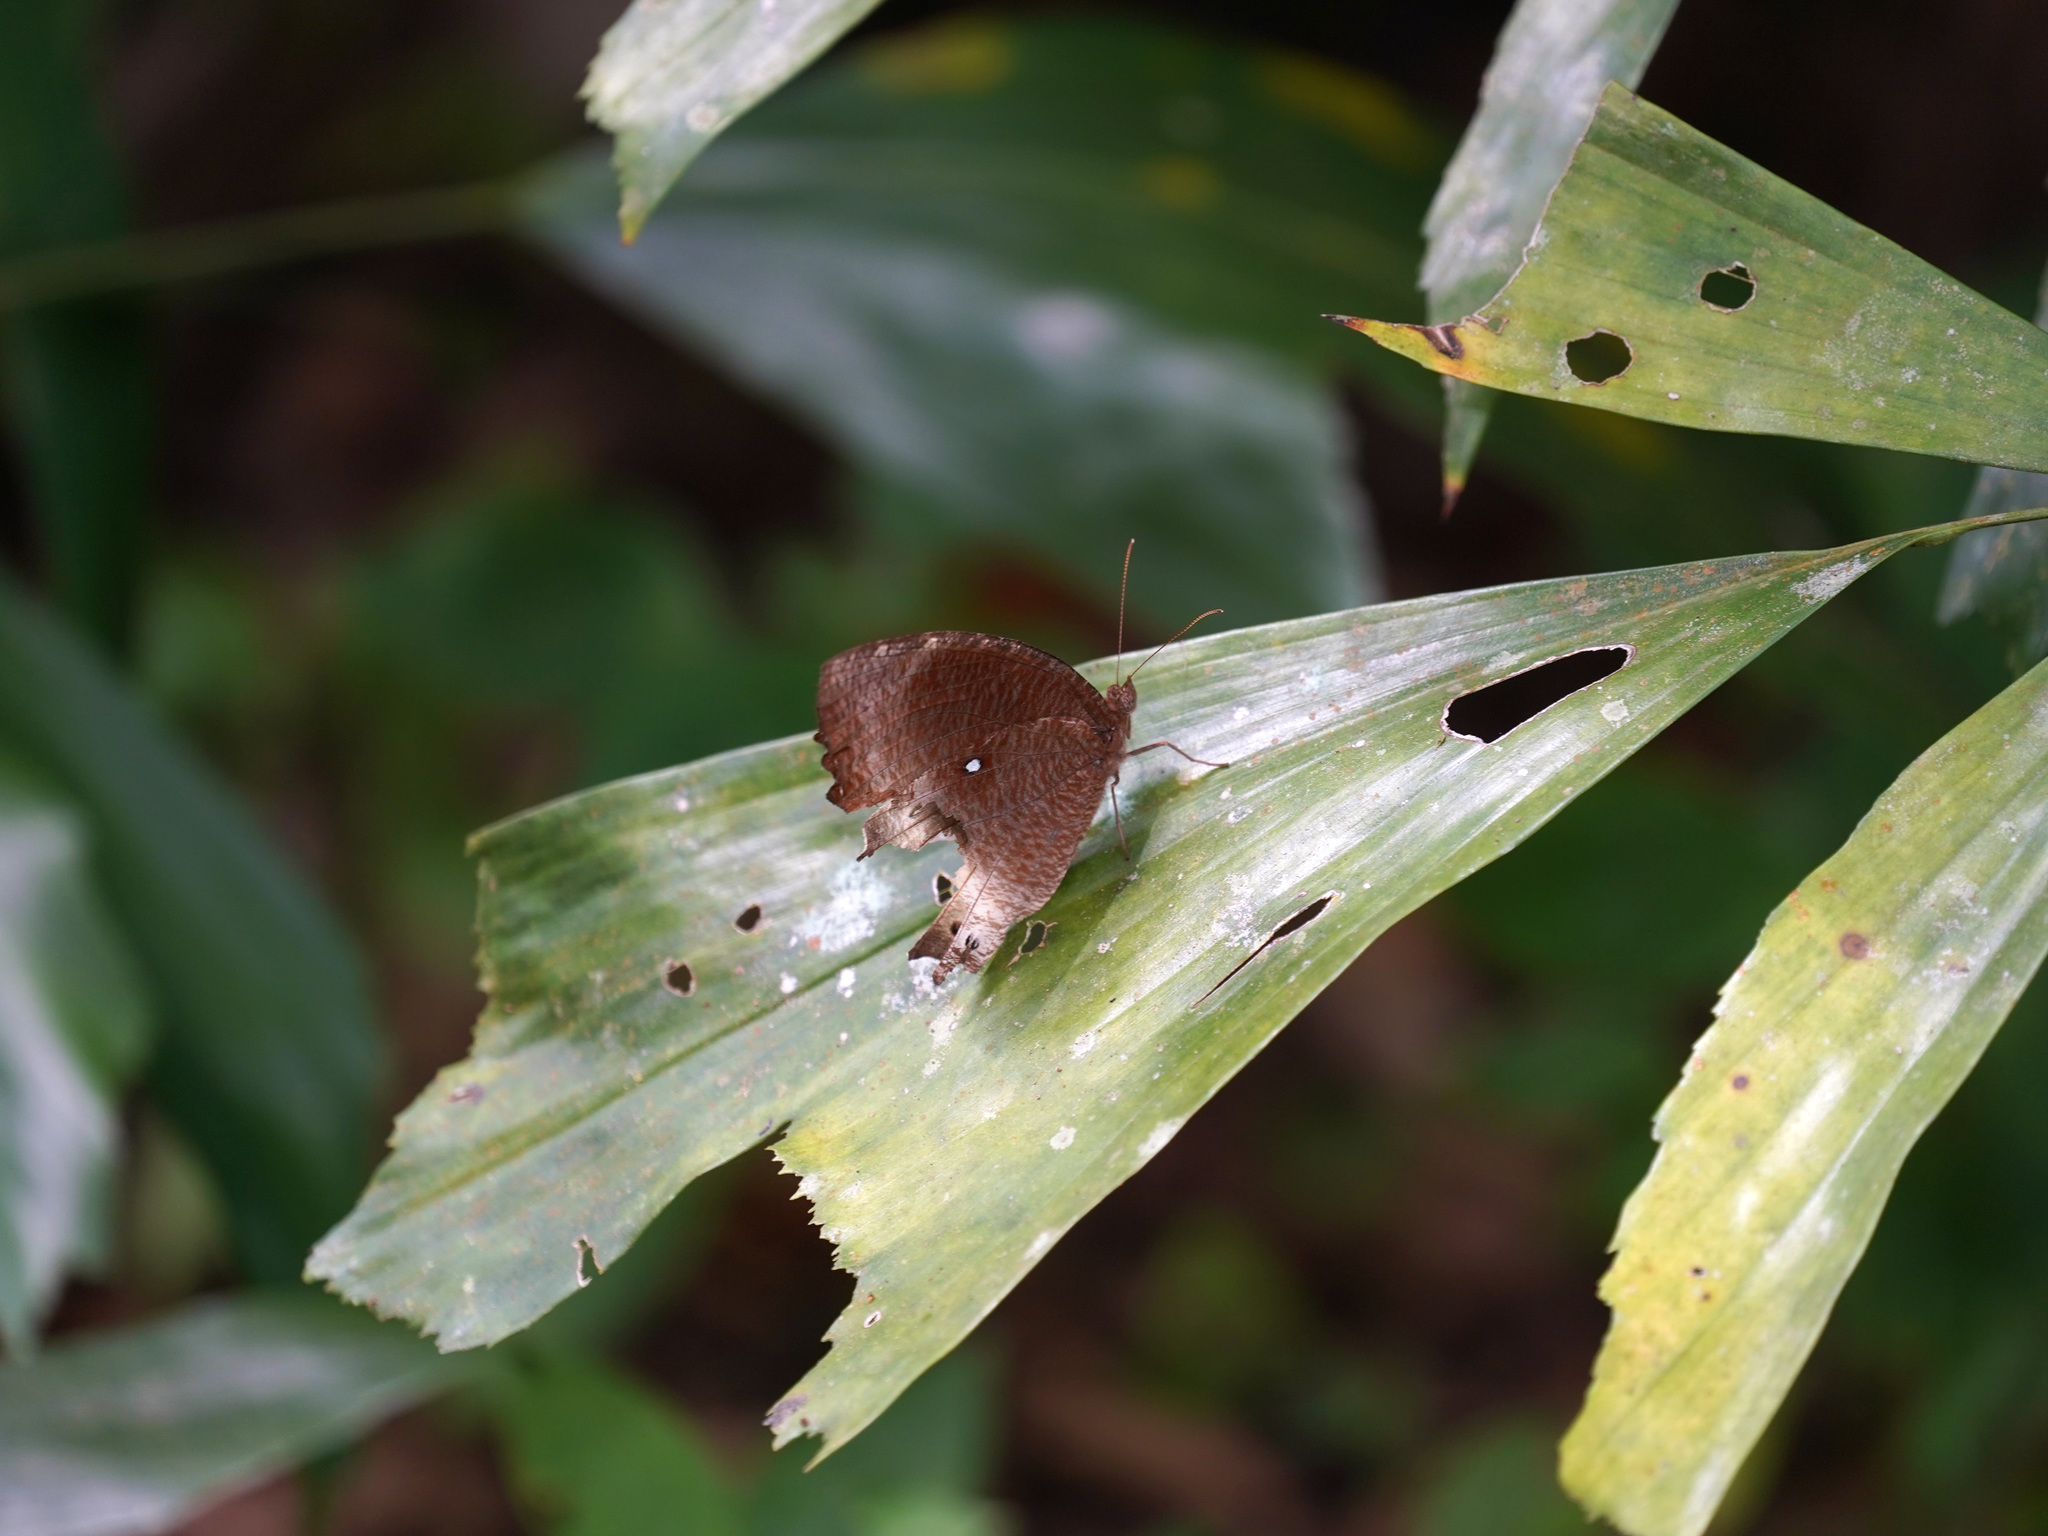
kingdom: Animalia
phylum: Arthropoda
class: Insecta
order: Lepidoptera
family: Nymphalidae
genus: Elymnias
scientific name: Elymnias panthera
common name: Tawny palmfly
